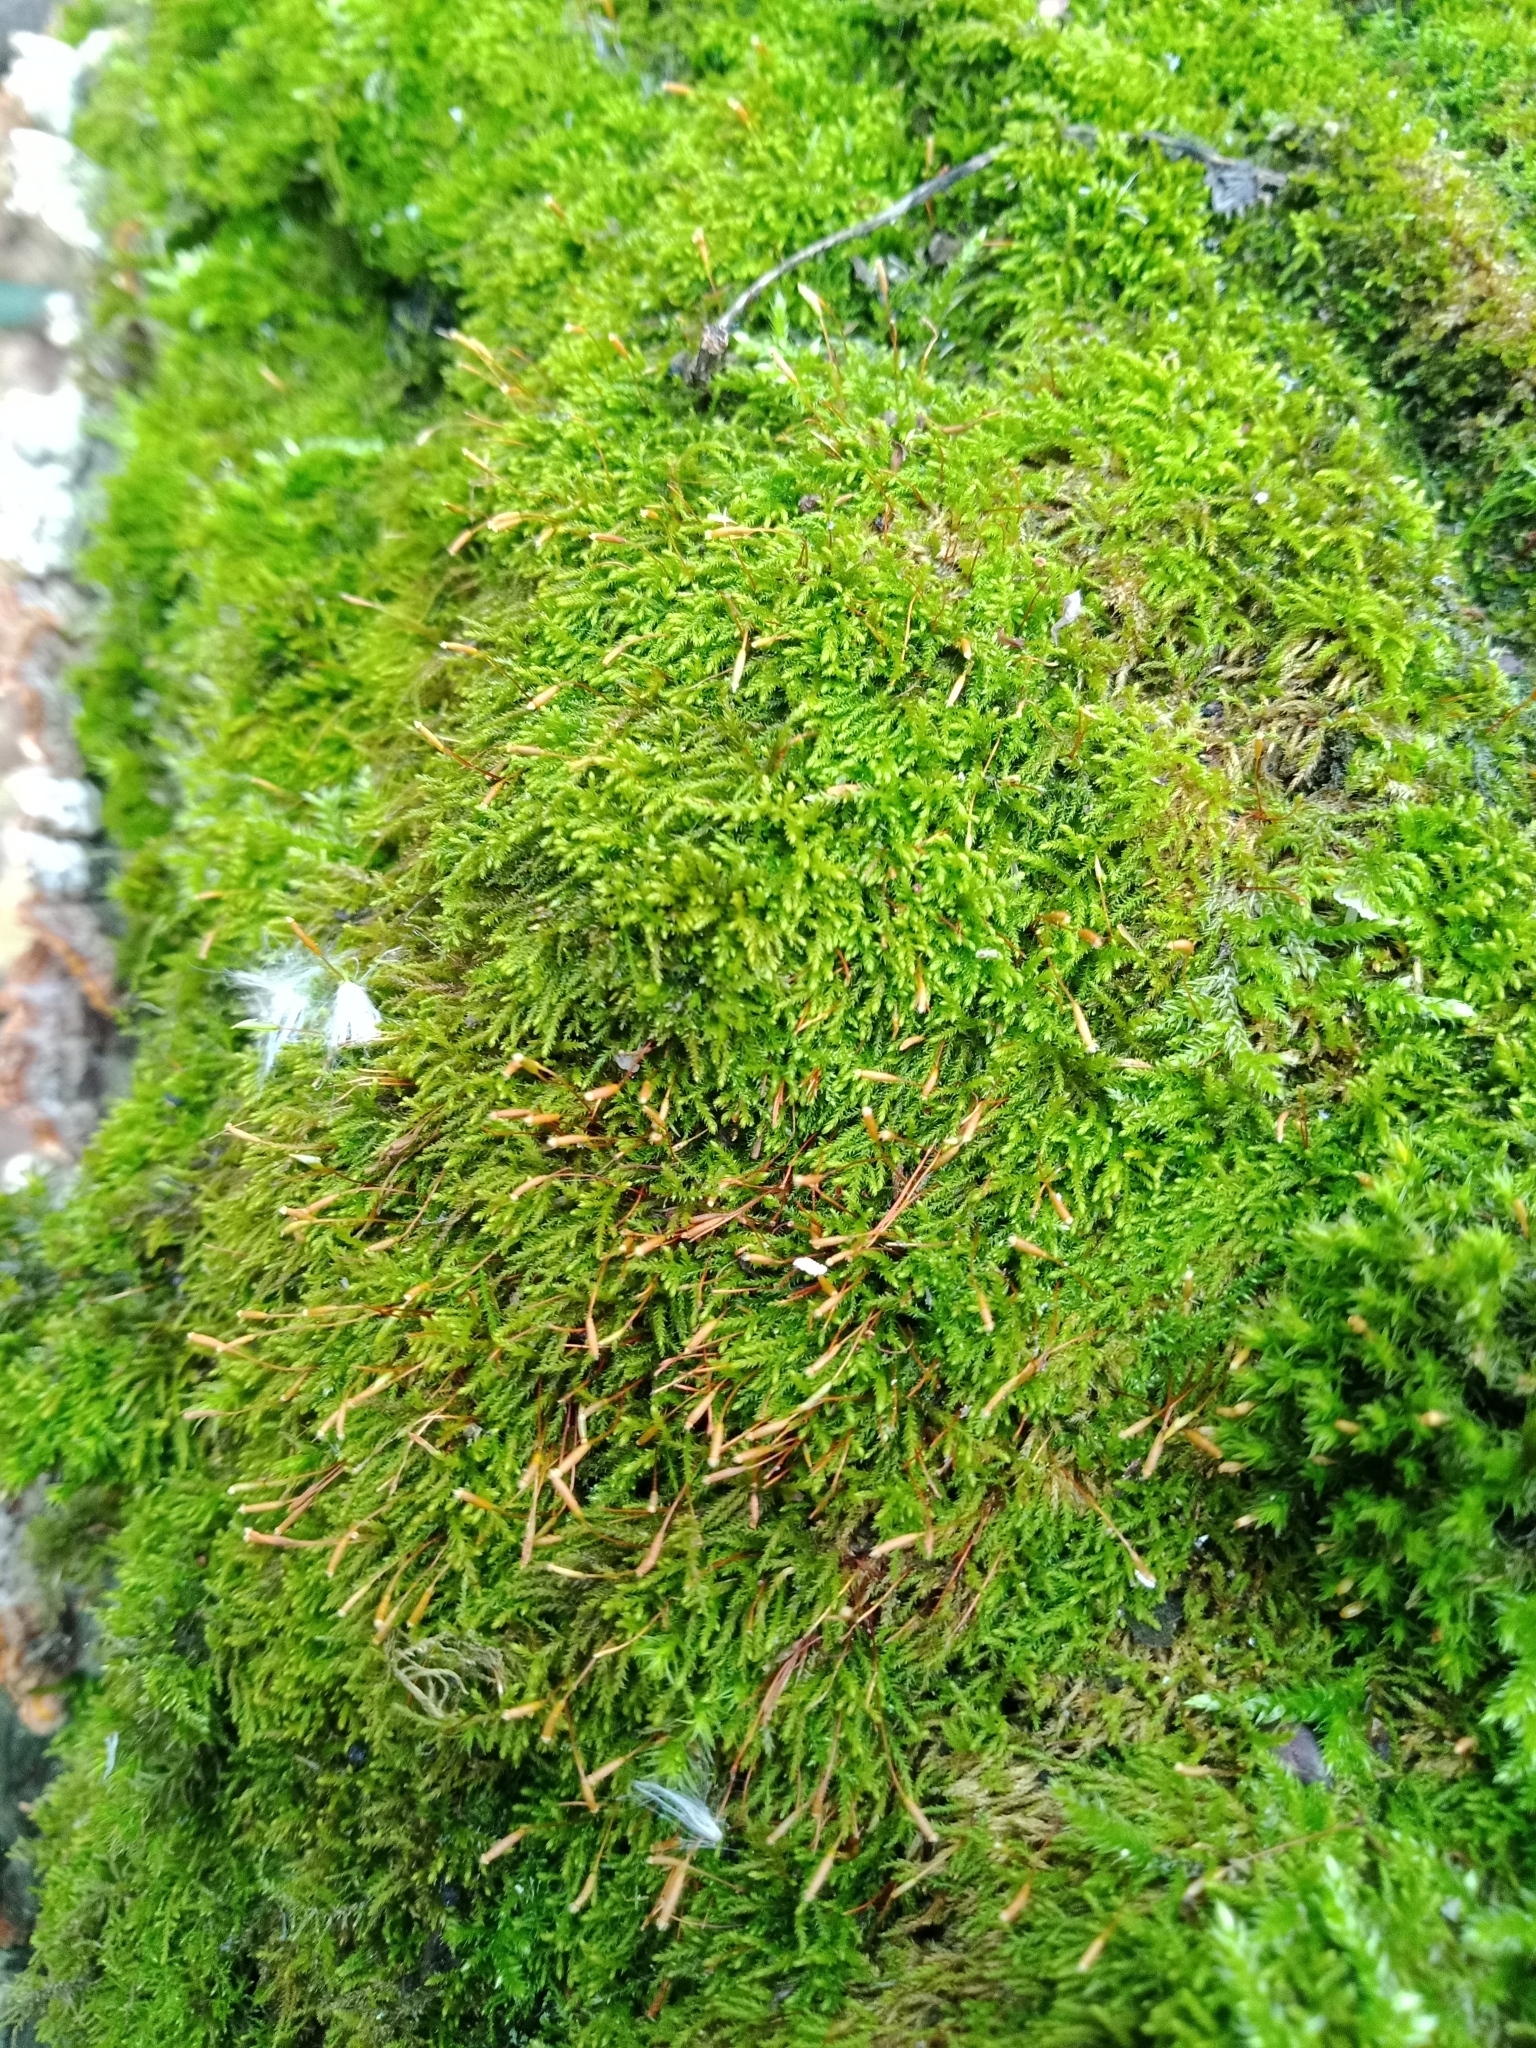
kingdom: Plantae
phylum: Bryophyta
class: Bryopsida
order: Hypnales
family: Leskeaceae
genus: Leskea
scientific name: Leskea polycarpa
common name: Many-fruited leske's moss
